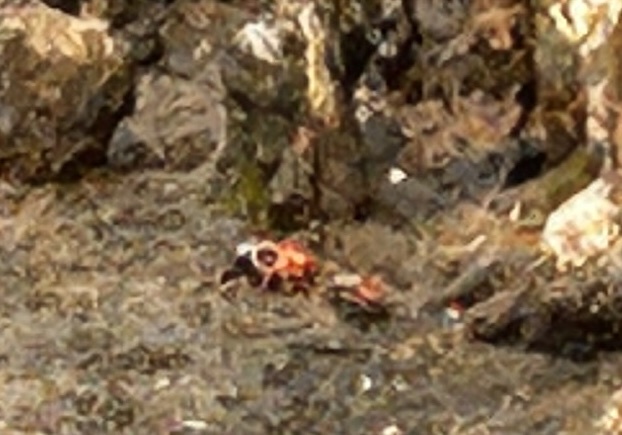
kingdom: Animalia
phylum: Arthropoda
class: Malacostraca
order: Decapoda
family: Ocypodidae
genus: Tubuca
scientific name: Tubuca arcuata
